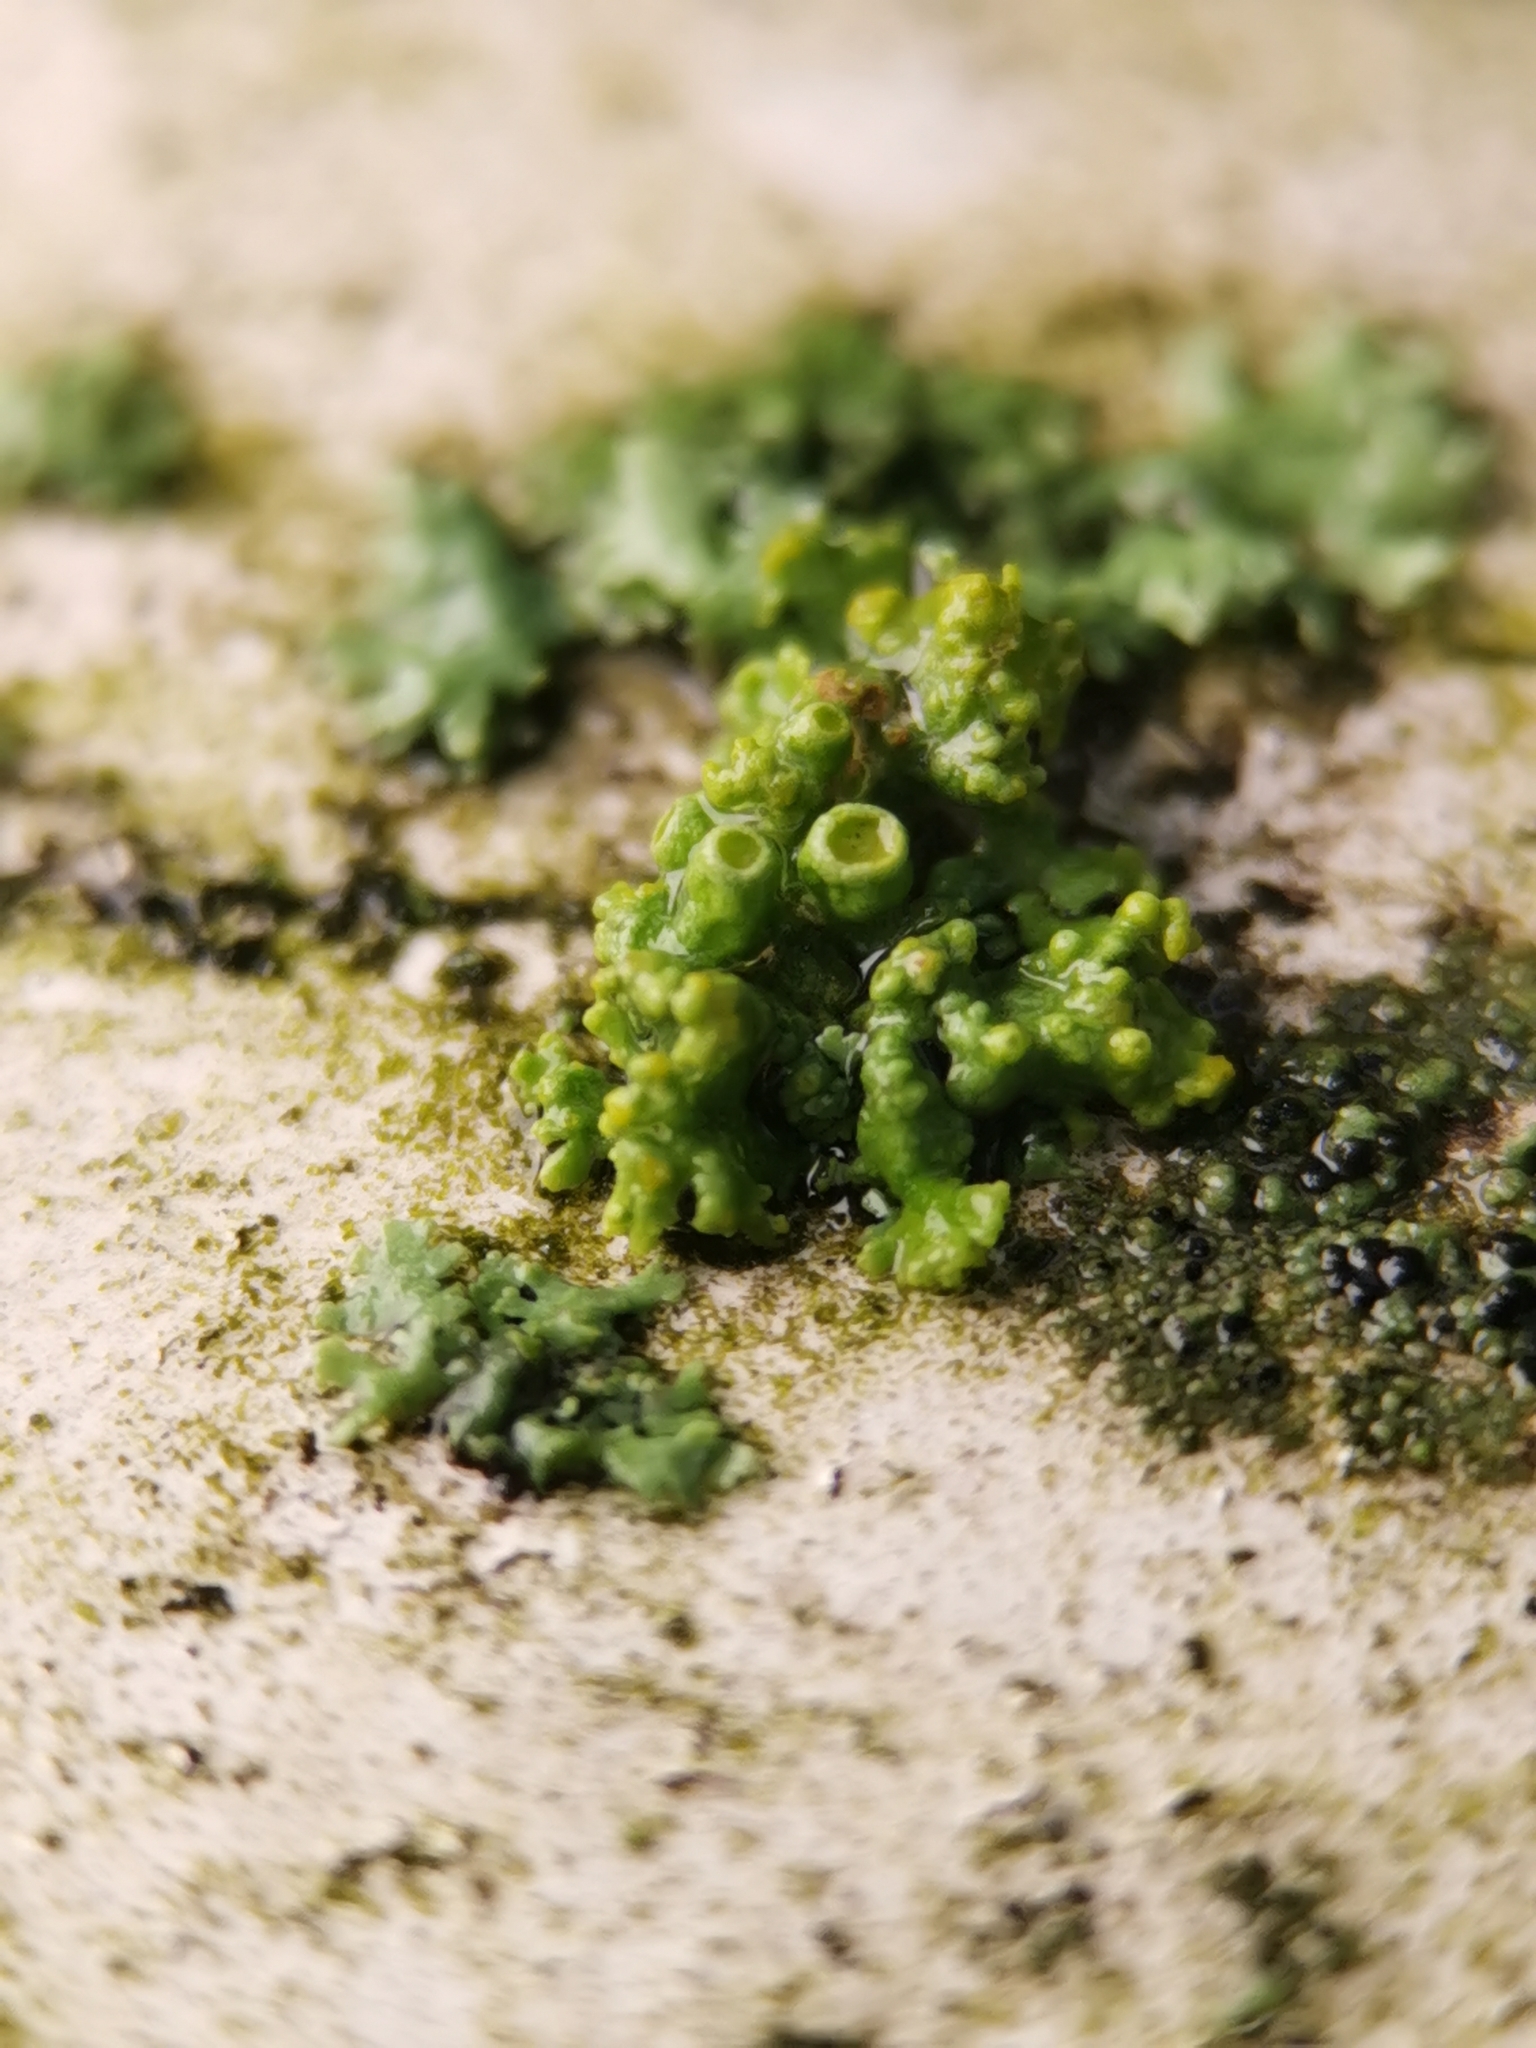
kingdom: Fungi
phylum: Ascomycota
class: Lecanoromycetes
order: Teloschistales
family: Teloschistaceae
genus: Polycauliona
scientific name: Polycauliona polycarpa
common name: Pin-cushion sunburst lichen
